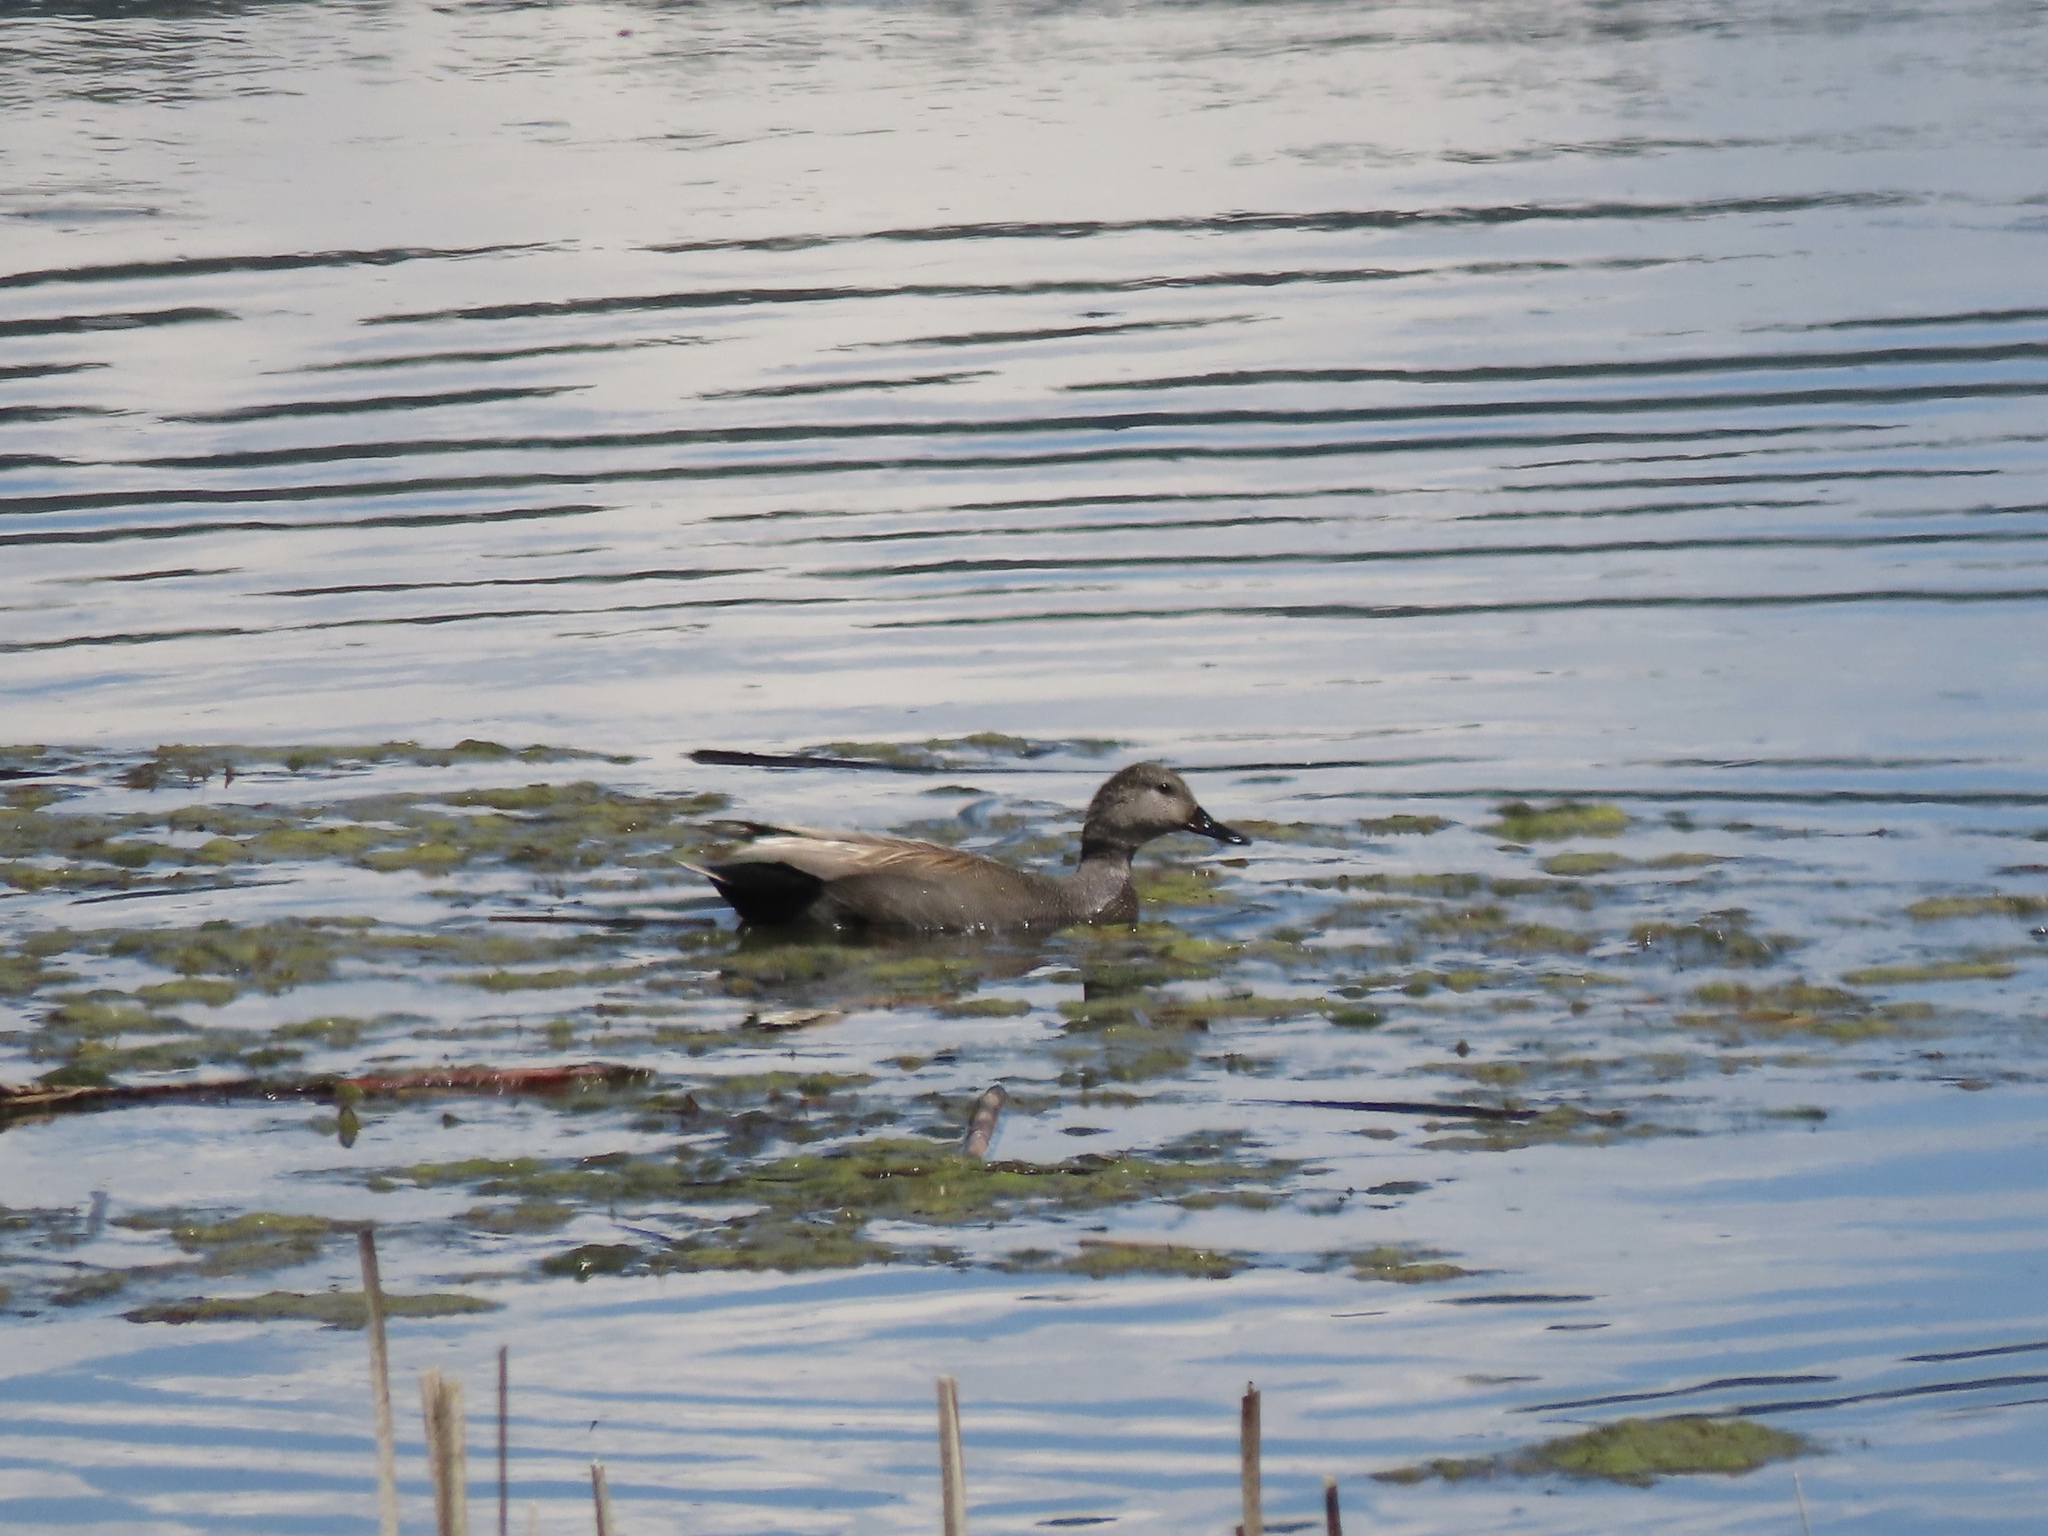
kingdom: Animalia
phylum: Chordata
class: Aves
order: Anseriformes
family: Anatidae
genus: Mareca
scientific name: Mareca strepera
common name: Gadwall
